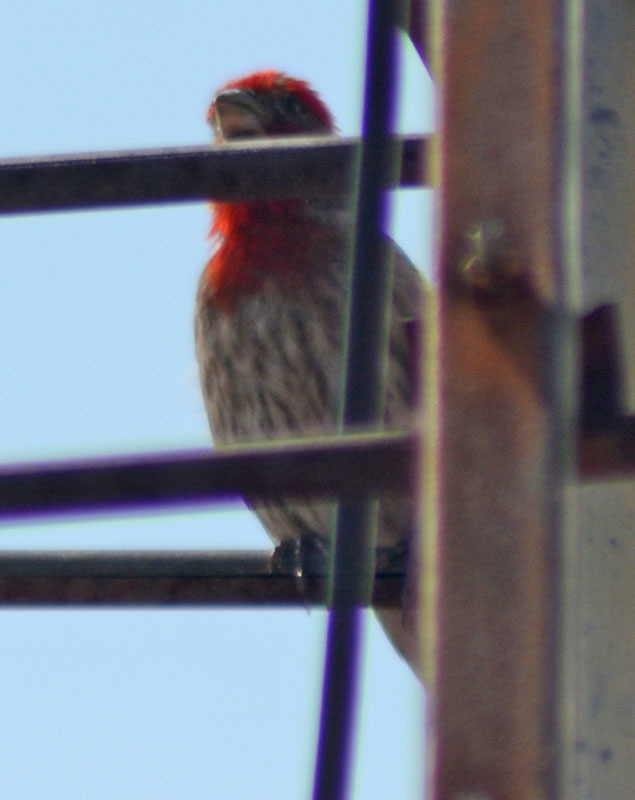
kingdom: Animalia
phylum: Chordata
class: Aves
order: Passeriformes
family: Fringillidae
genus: Haemorhous
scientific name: Haemorhous mexicanus
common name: House finch
